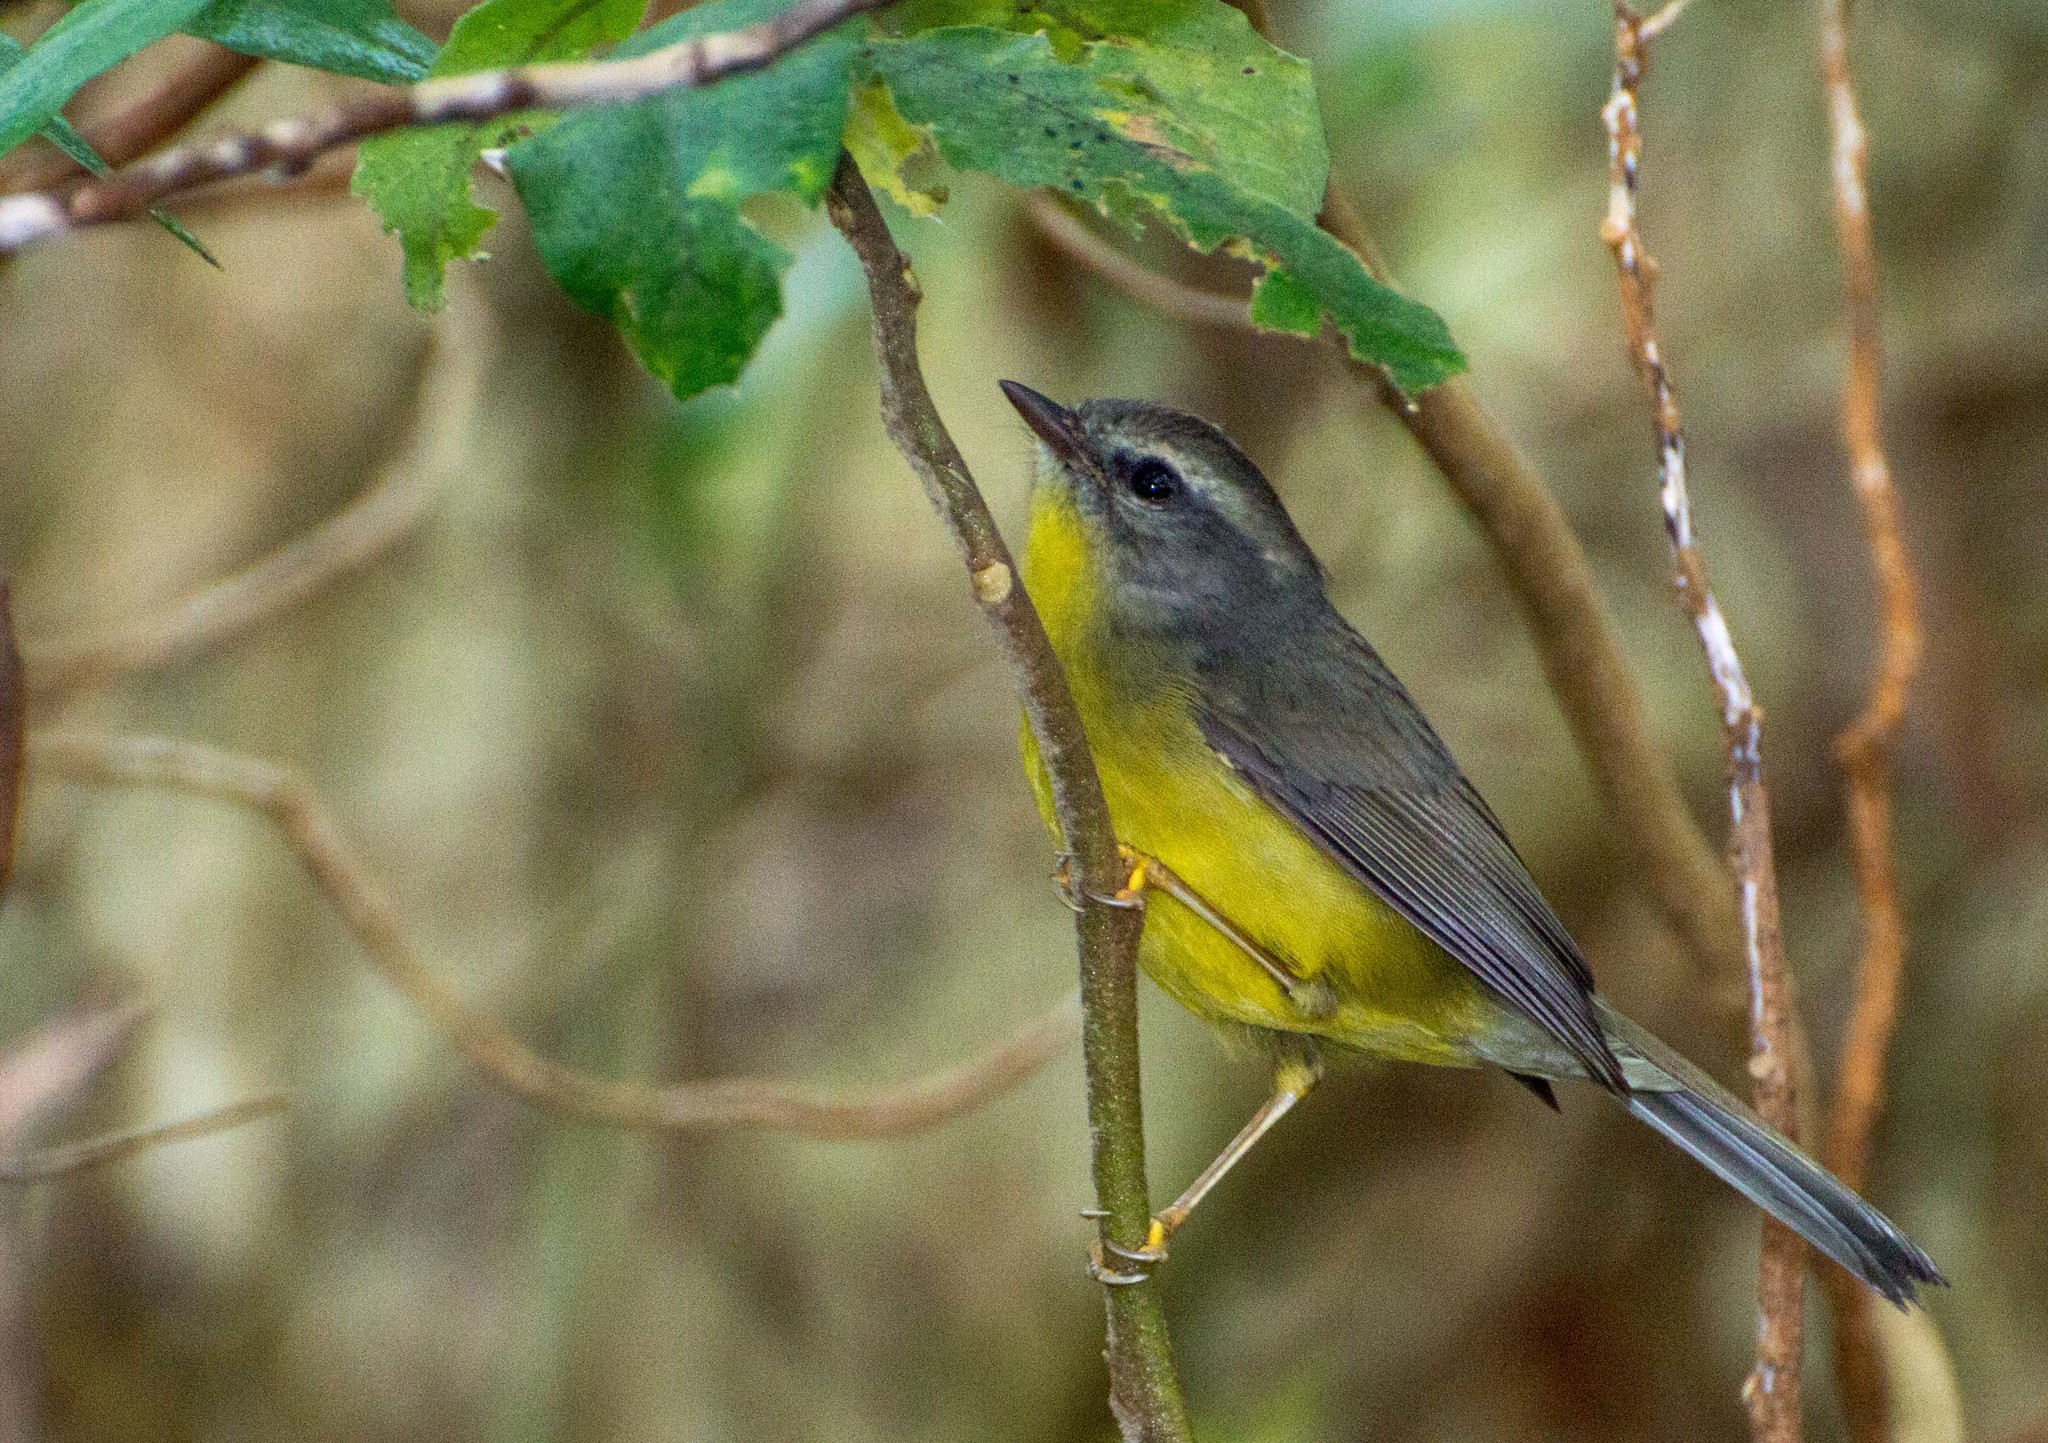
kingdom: Animalia
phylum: Chordata
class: Aves
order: Passeriformes
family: Parulidae
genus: Basileuterus
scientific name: Basileuterus culicivorus
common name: Golden-crowned warbler
